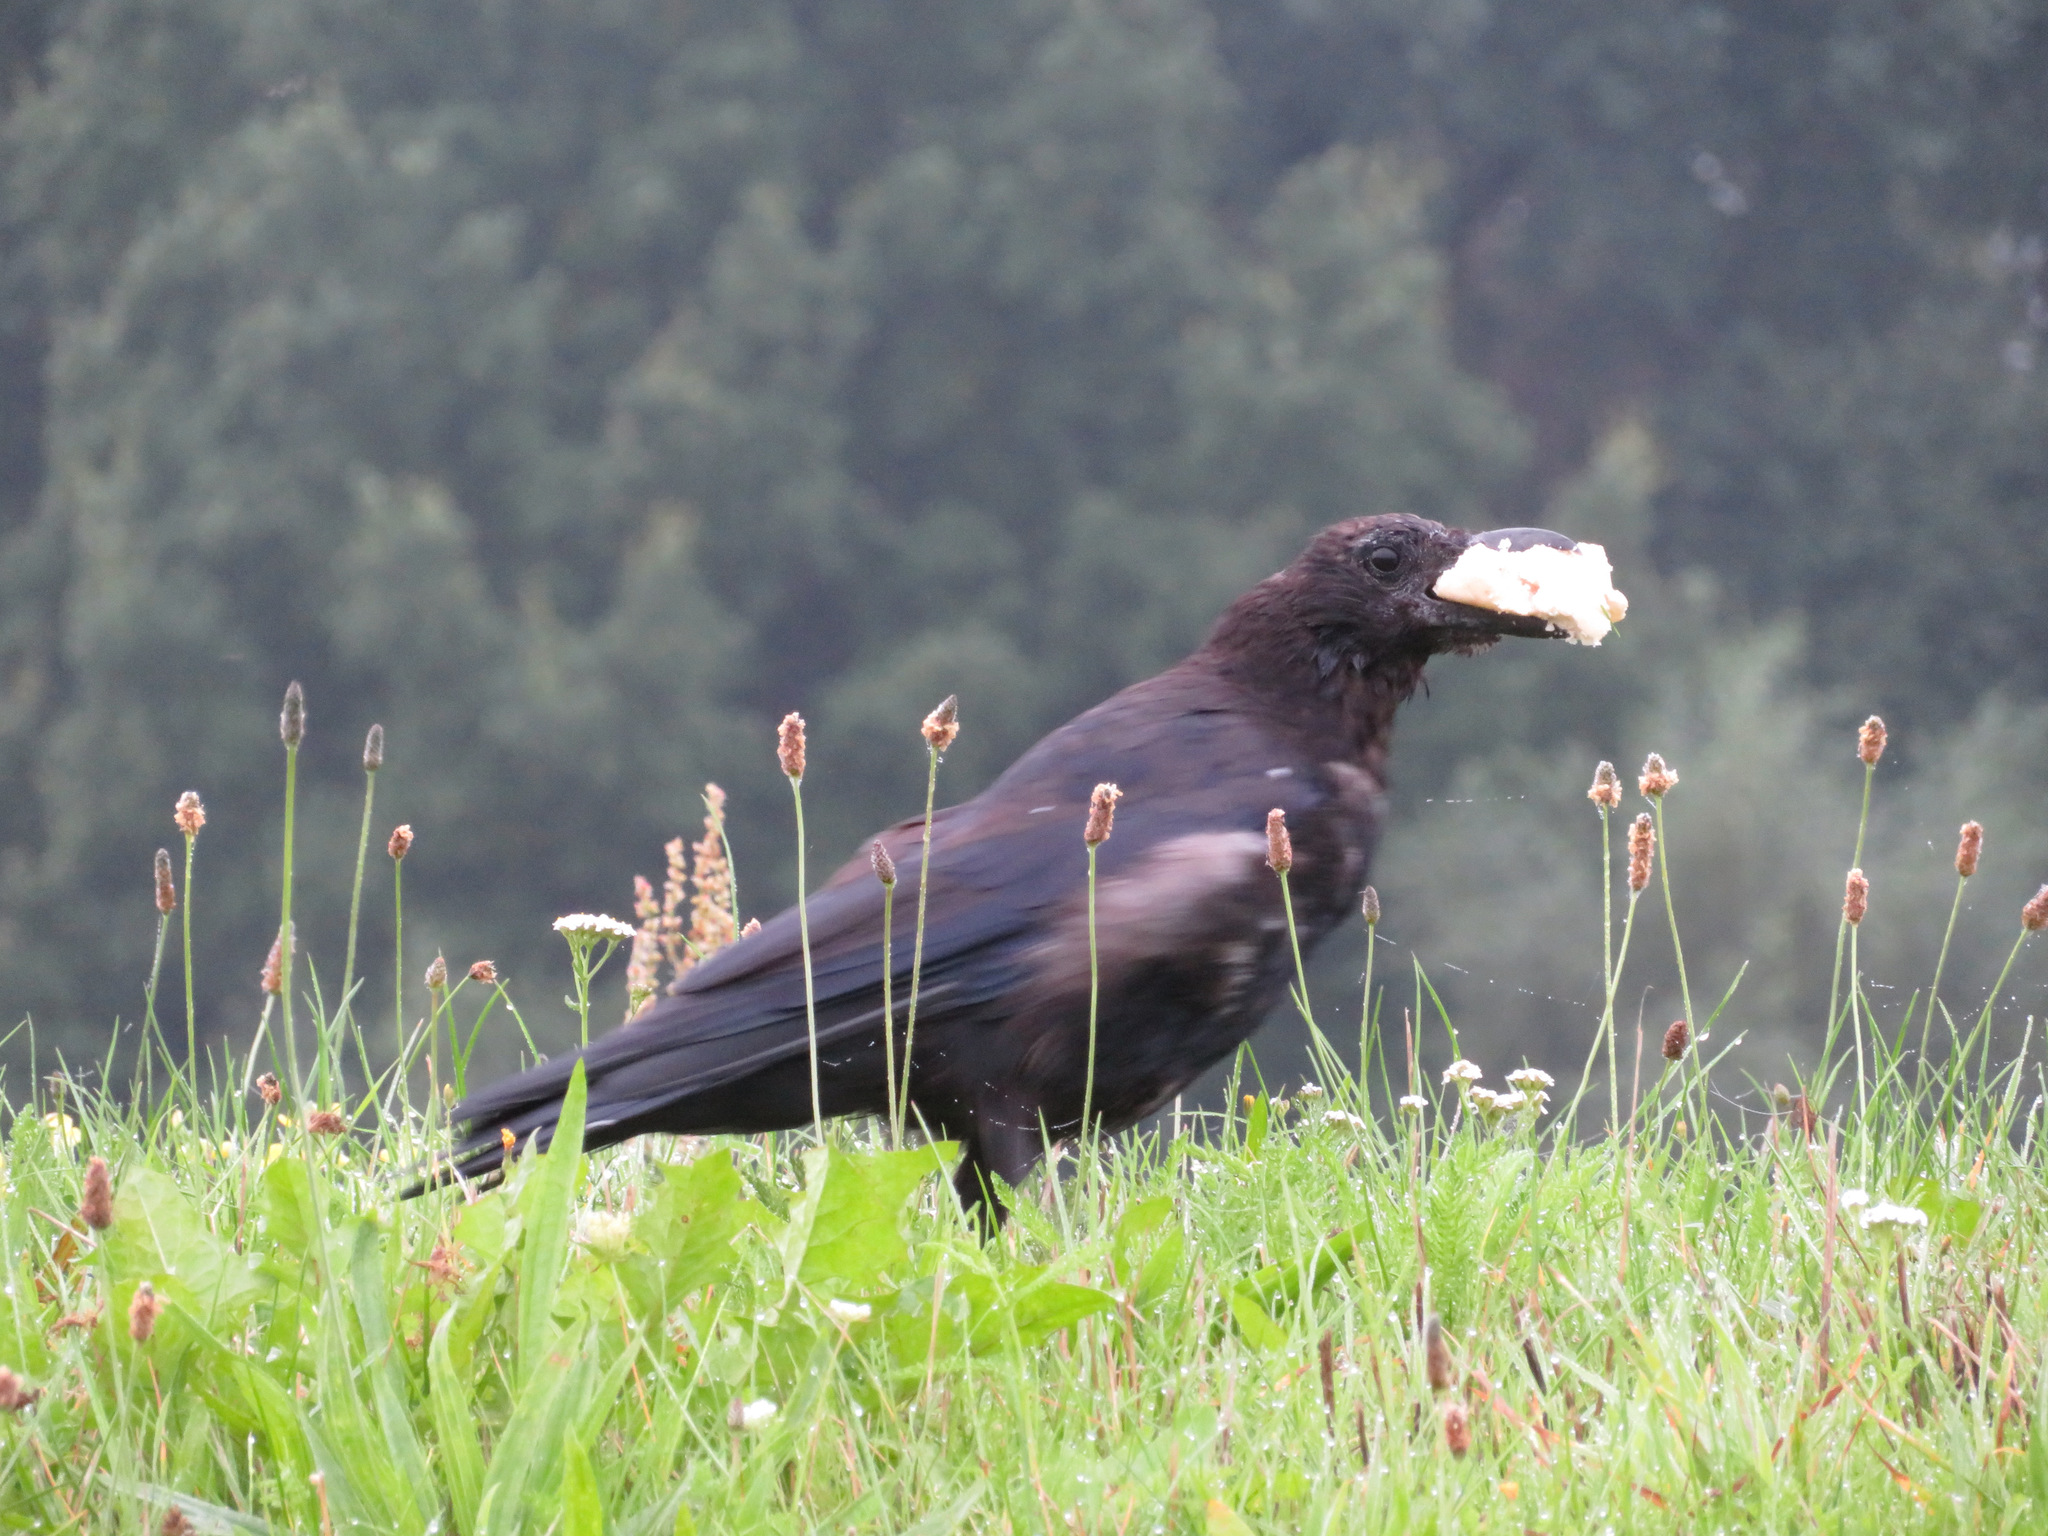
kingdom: Animalia
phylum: Chordata
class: Aves
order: Passeriformes
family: Corvidae
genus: Corvus
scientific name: Corvus corone
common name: Carrion crow
